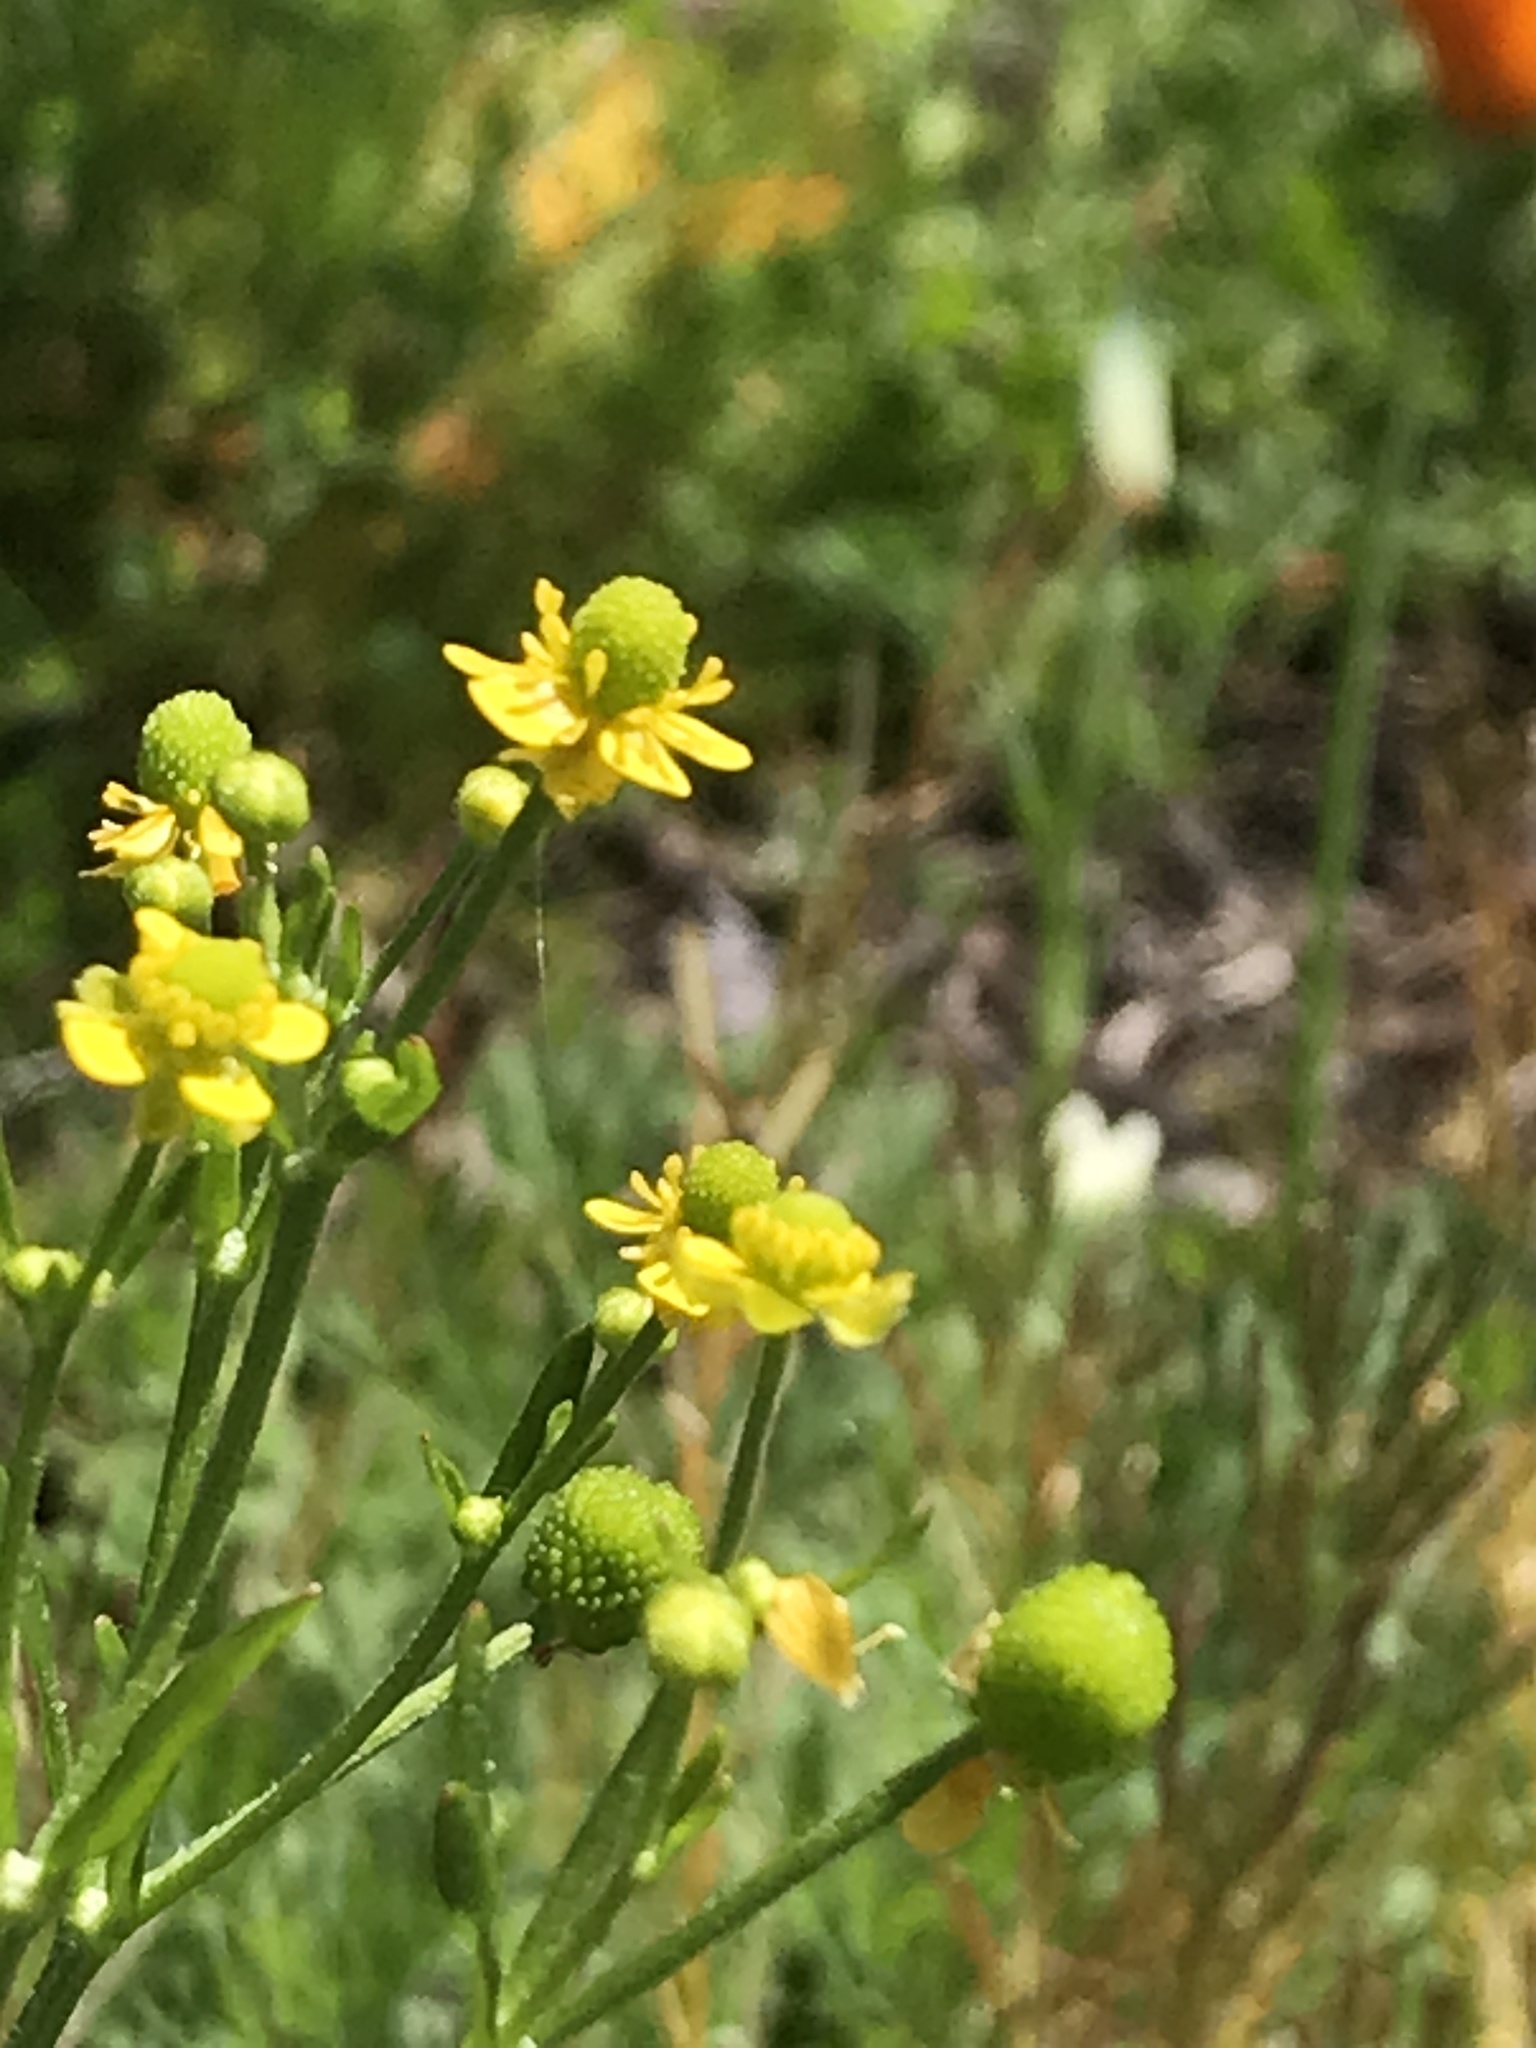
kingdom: Plantae
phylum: Tracheophyta
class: Magnoliopsida
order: Ranunculales
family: Ranunculaceae
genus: Ranunculus
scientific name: Ranunculus sceleratus
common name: Celery-leaved buttercup
